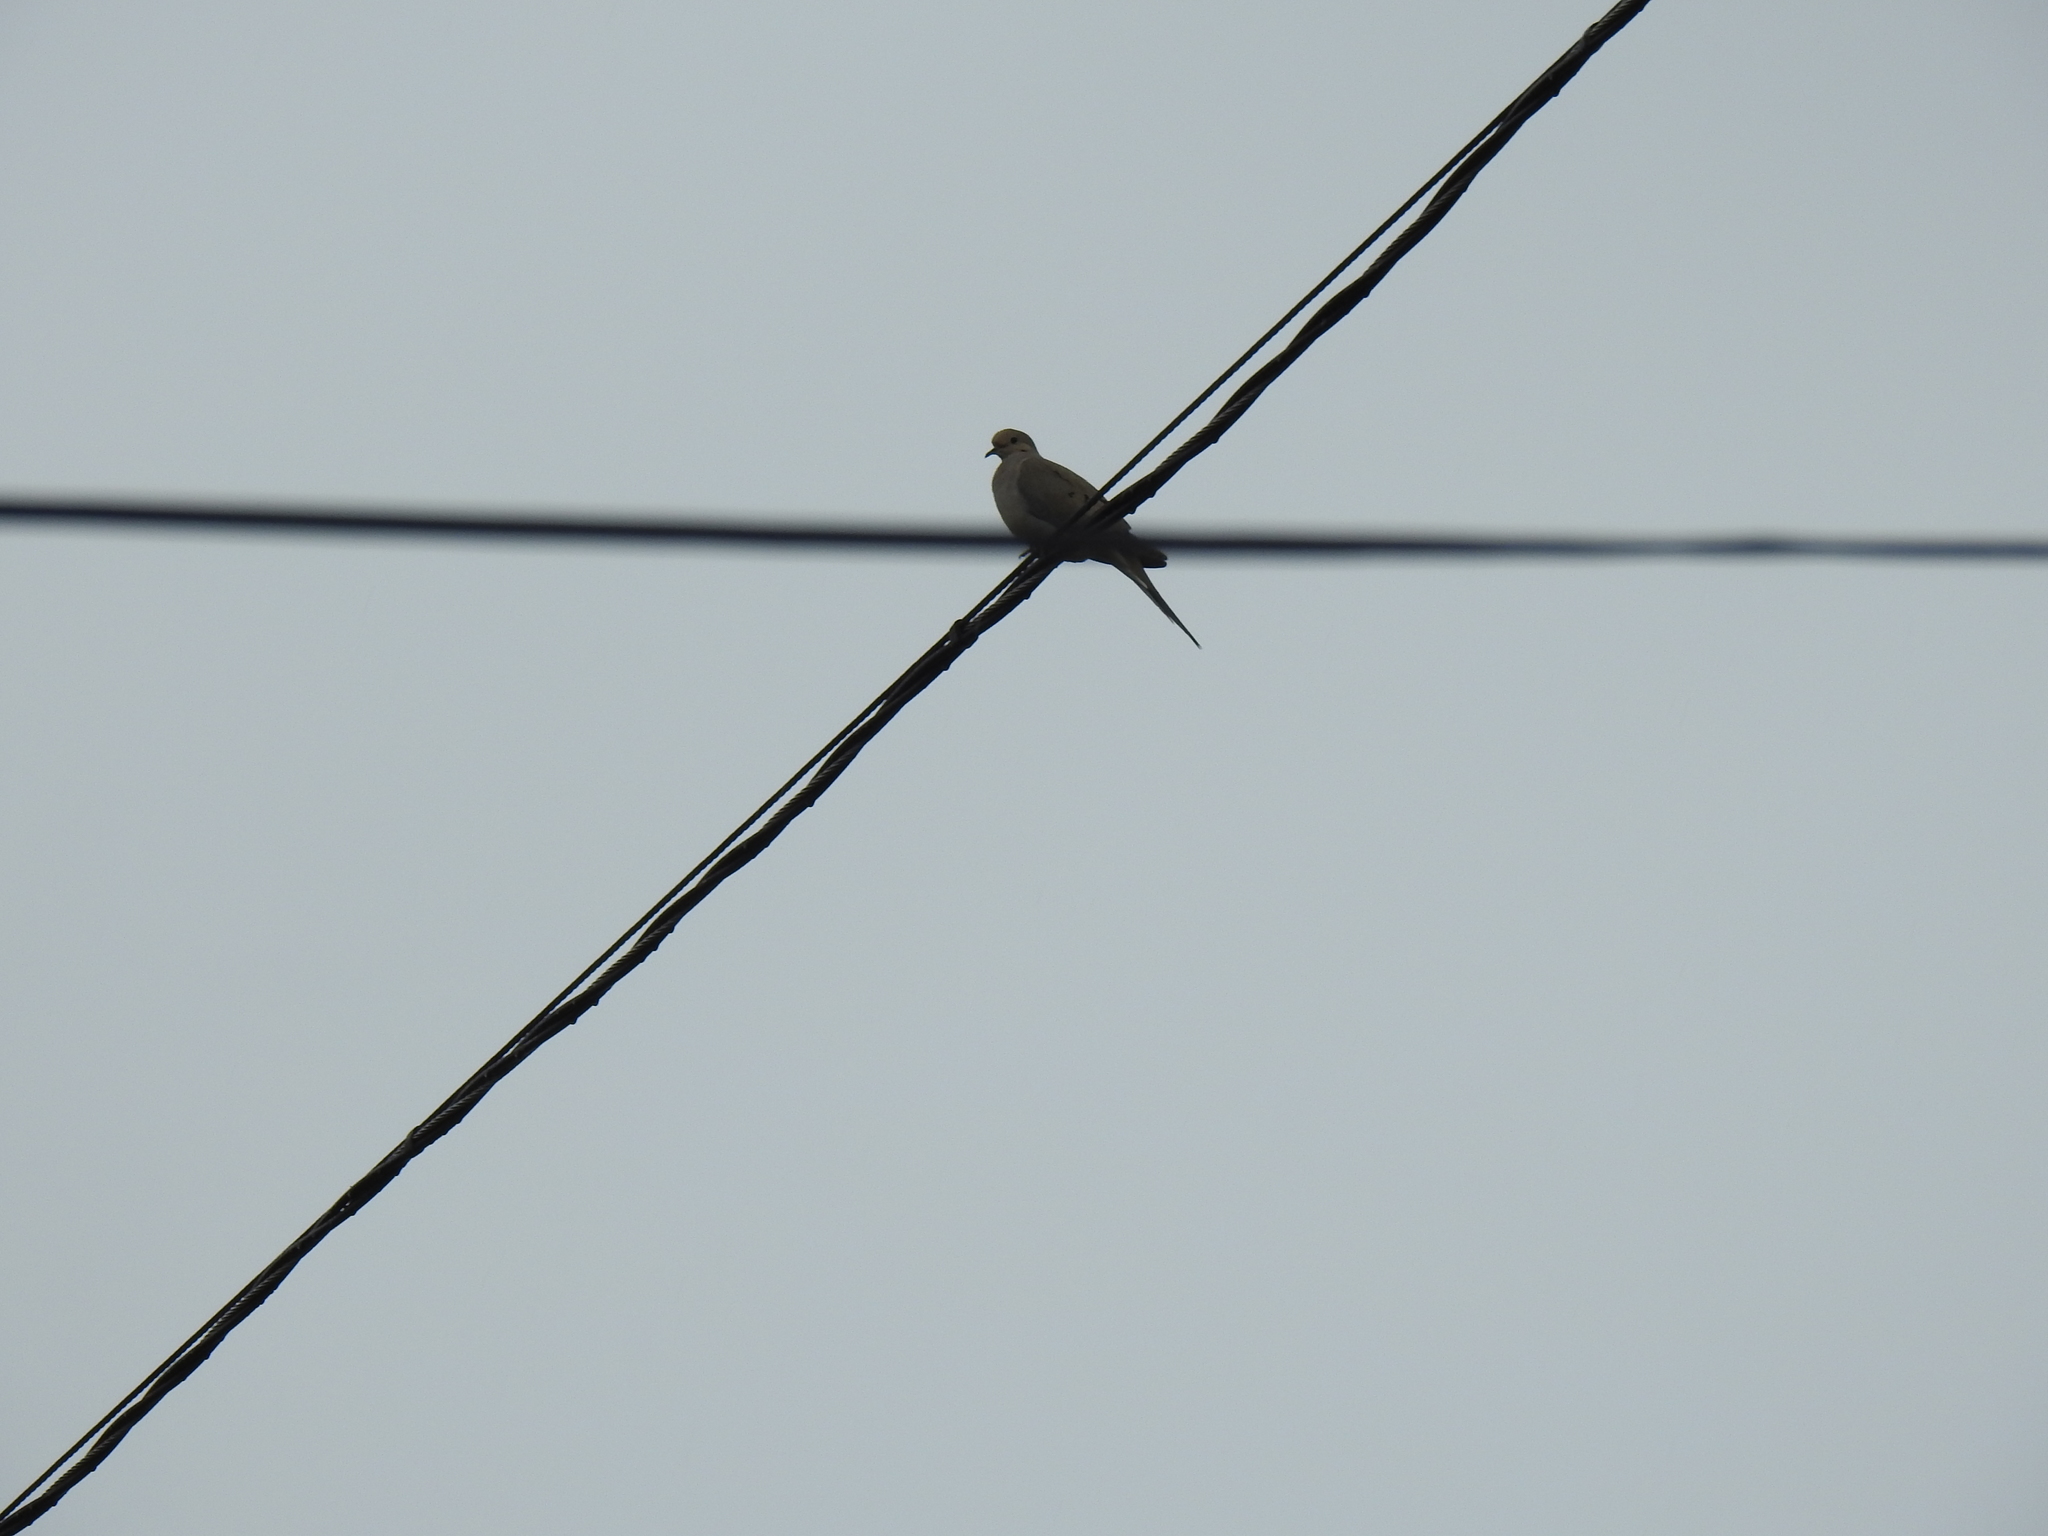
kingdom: Animalia
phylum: Chordata
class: Aves
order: Columbiformes
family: Columbidae
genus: Zenaida
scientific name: Zenaida macroura
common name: Mourning dove
